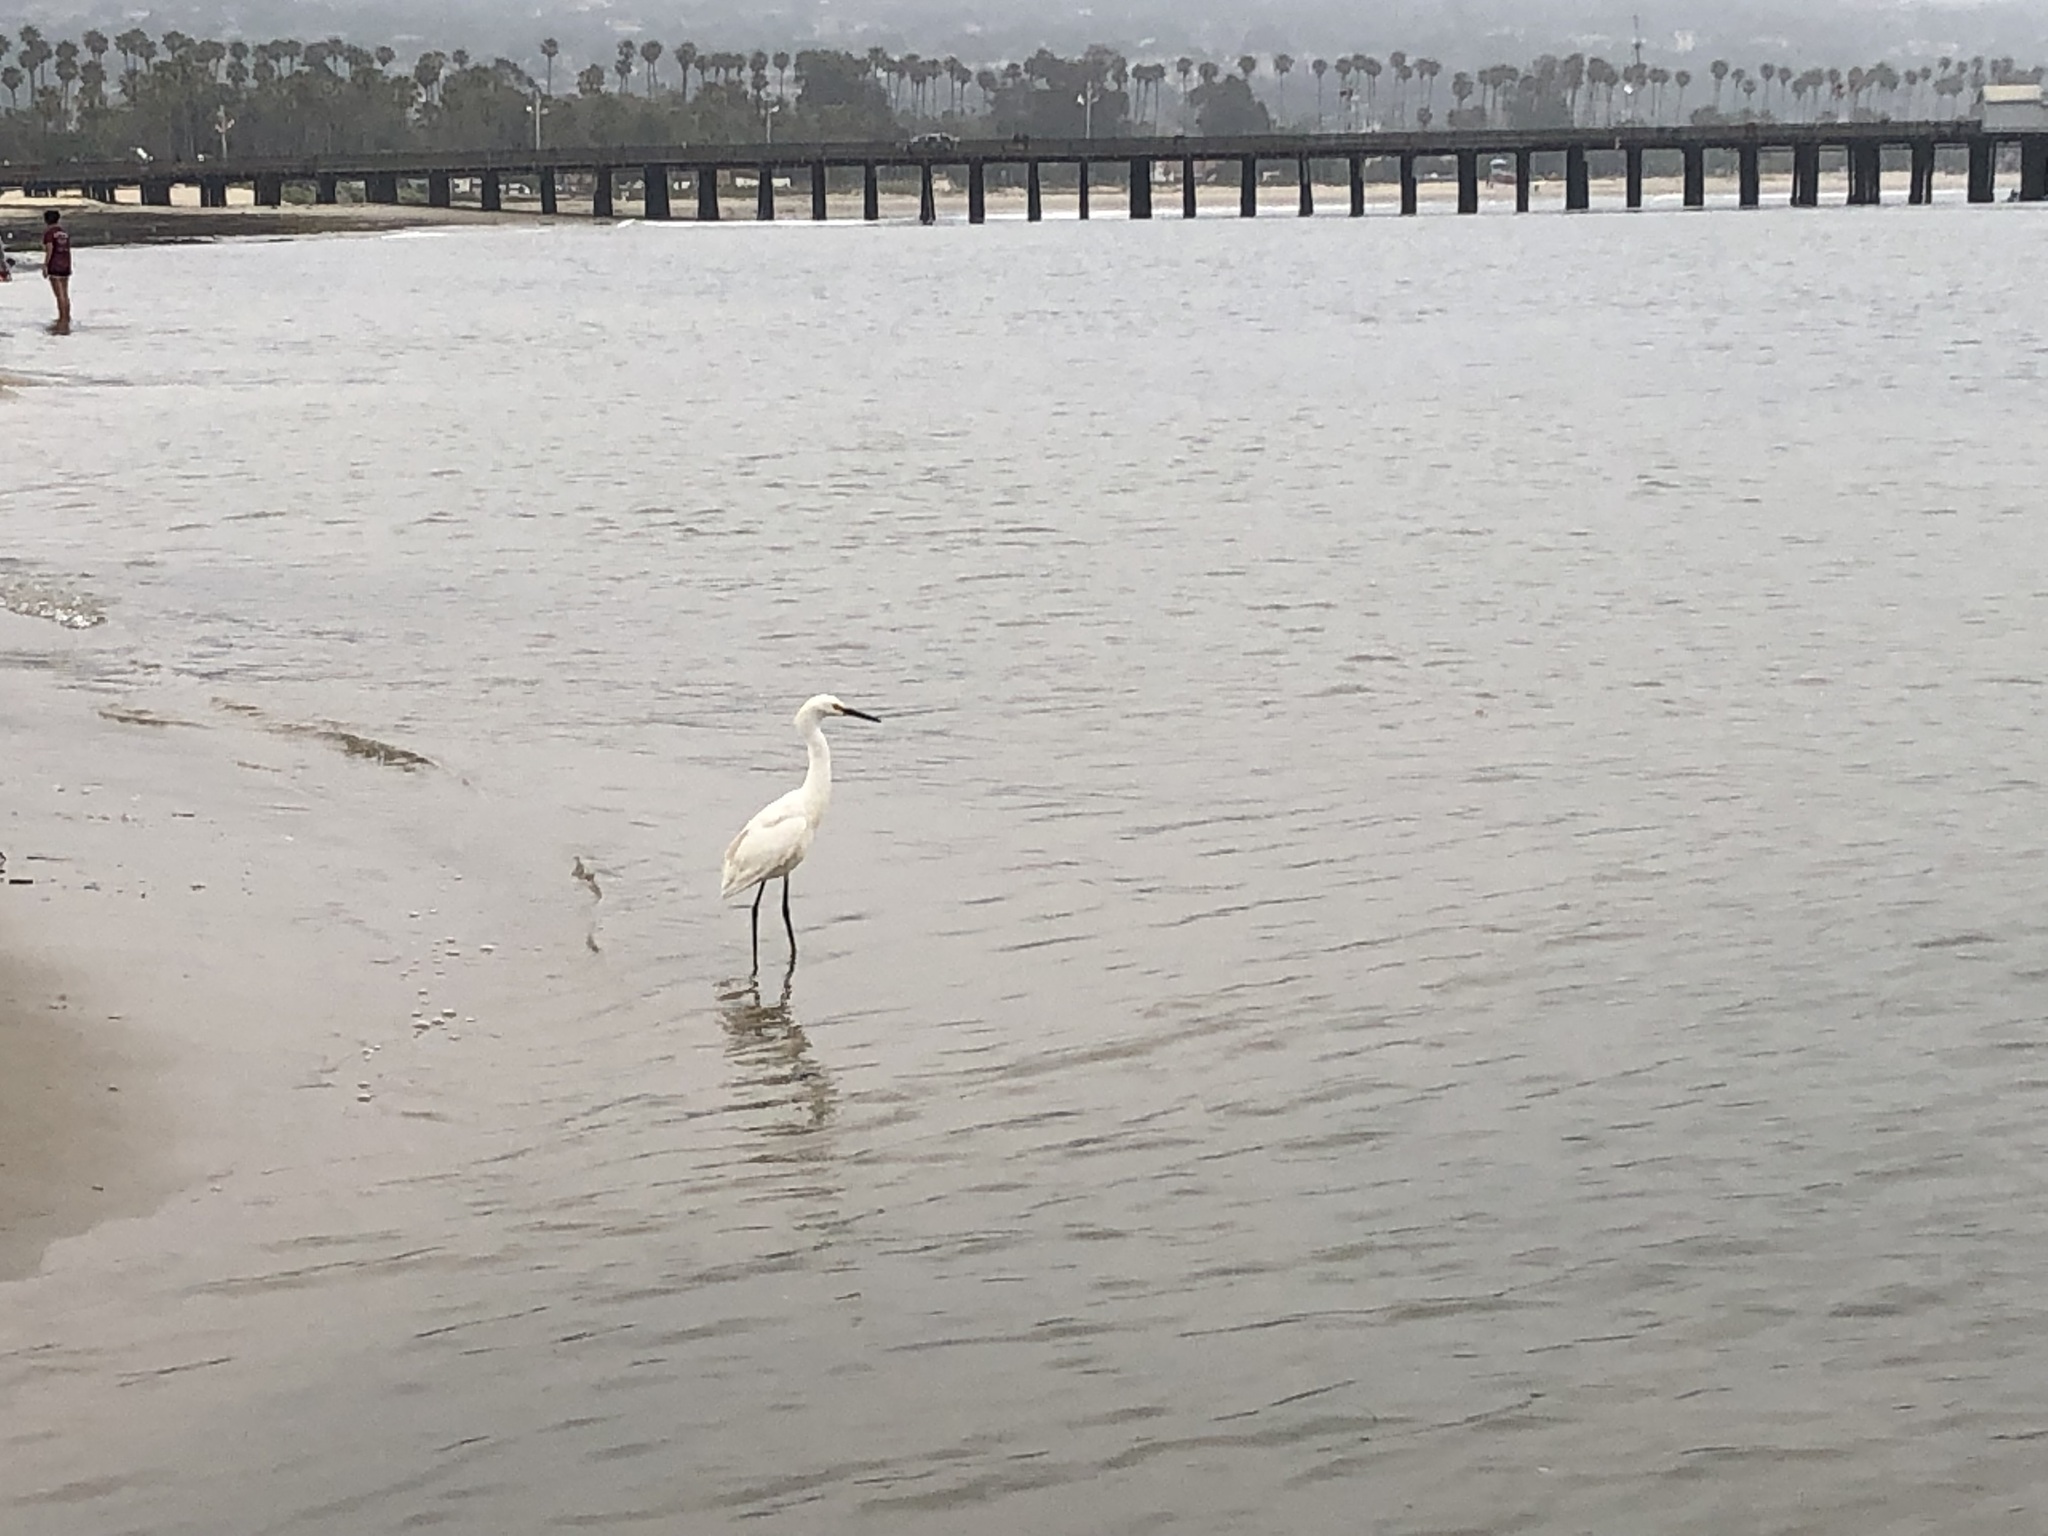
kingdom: Animalia
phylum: Chordata
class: Aves
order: Pelecaniformes
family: Ardeidae
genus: Egretta
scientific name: Egretta thula
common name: Snowy egret
